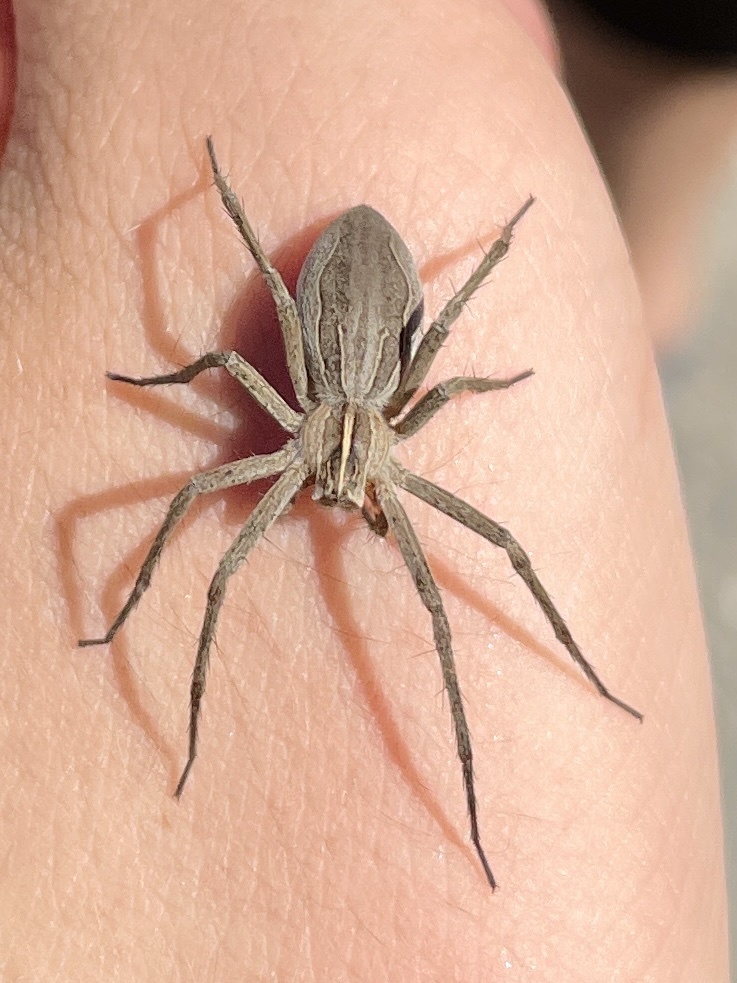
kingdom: Animalia
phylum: Arthropoda
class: Arachnida
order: Araneae
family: Pisauridae
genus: Pisaura
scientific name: Pisaura mirabilis
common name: Tent spider
